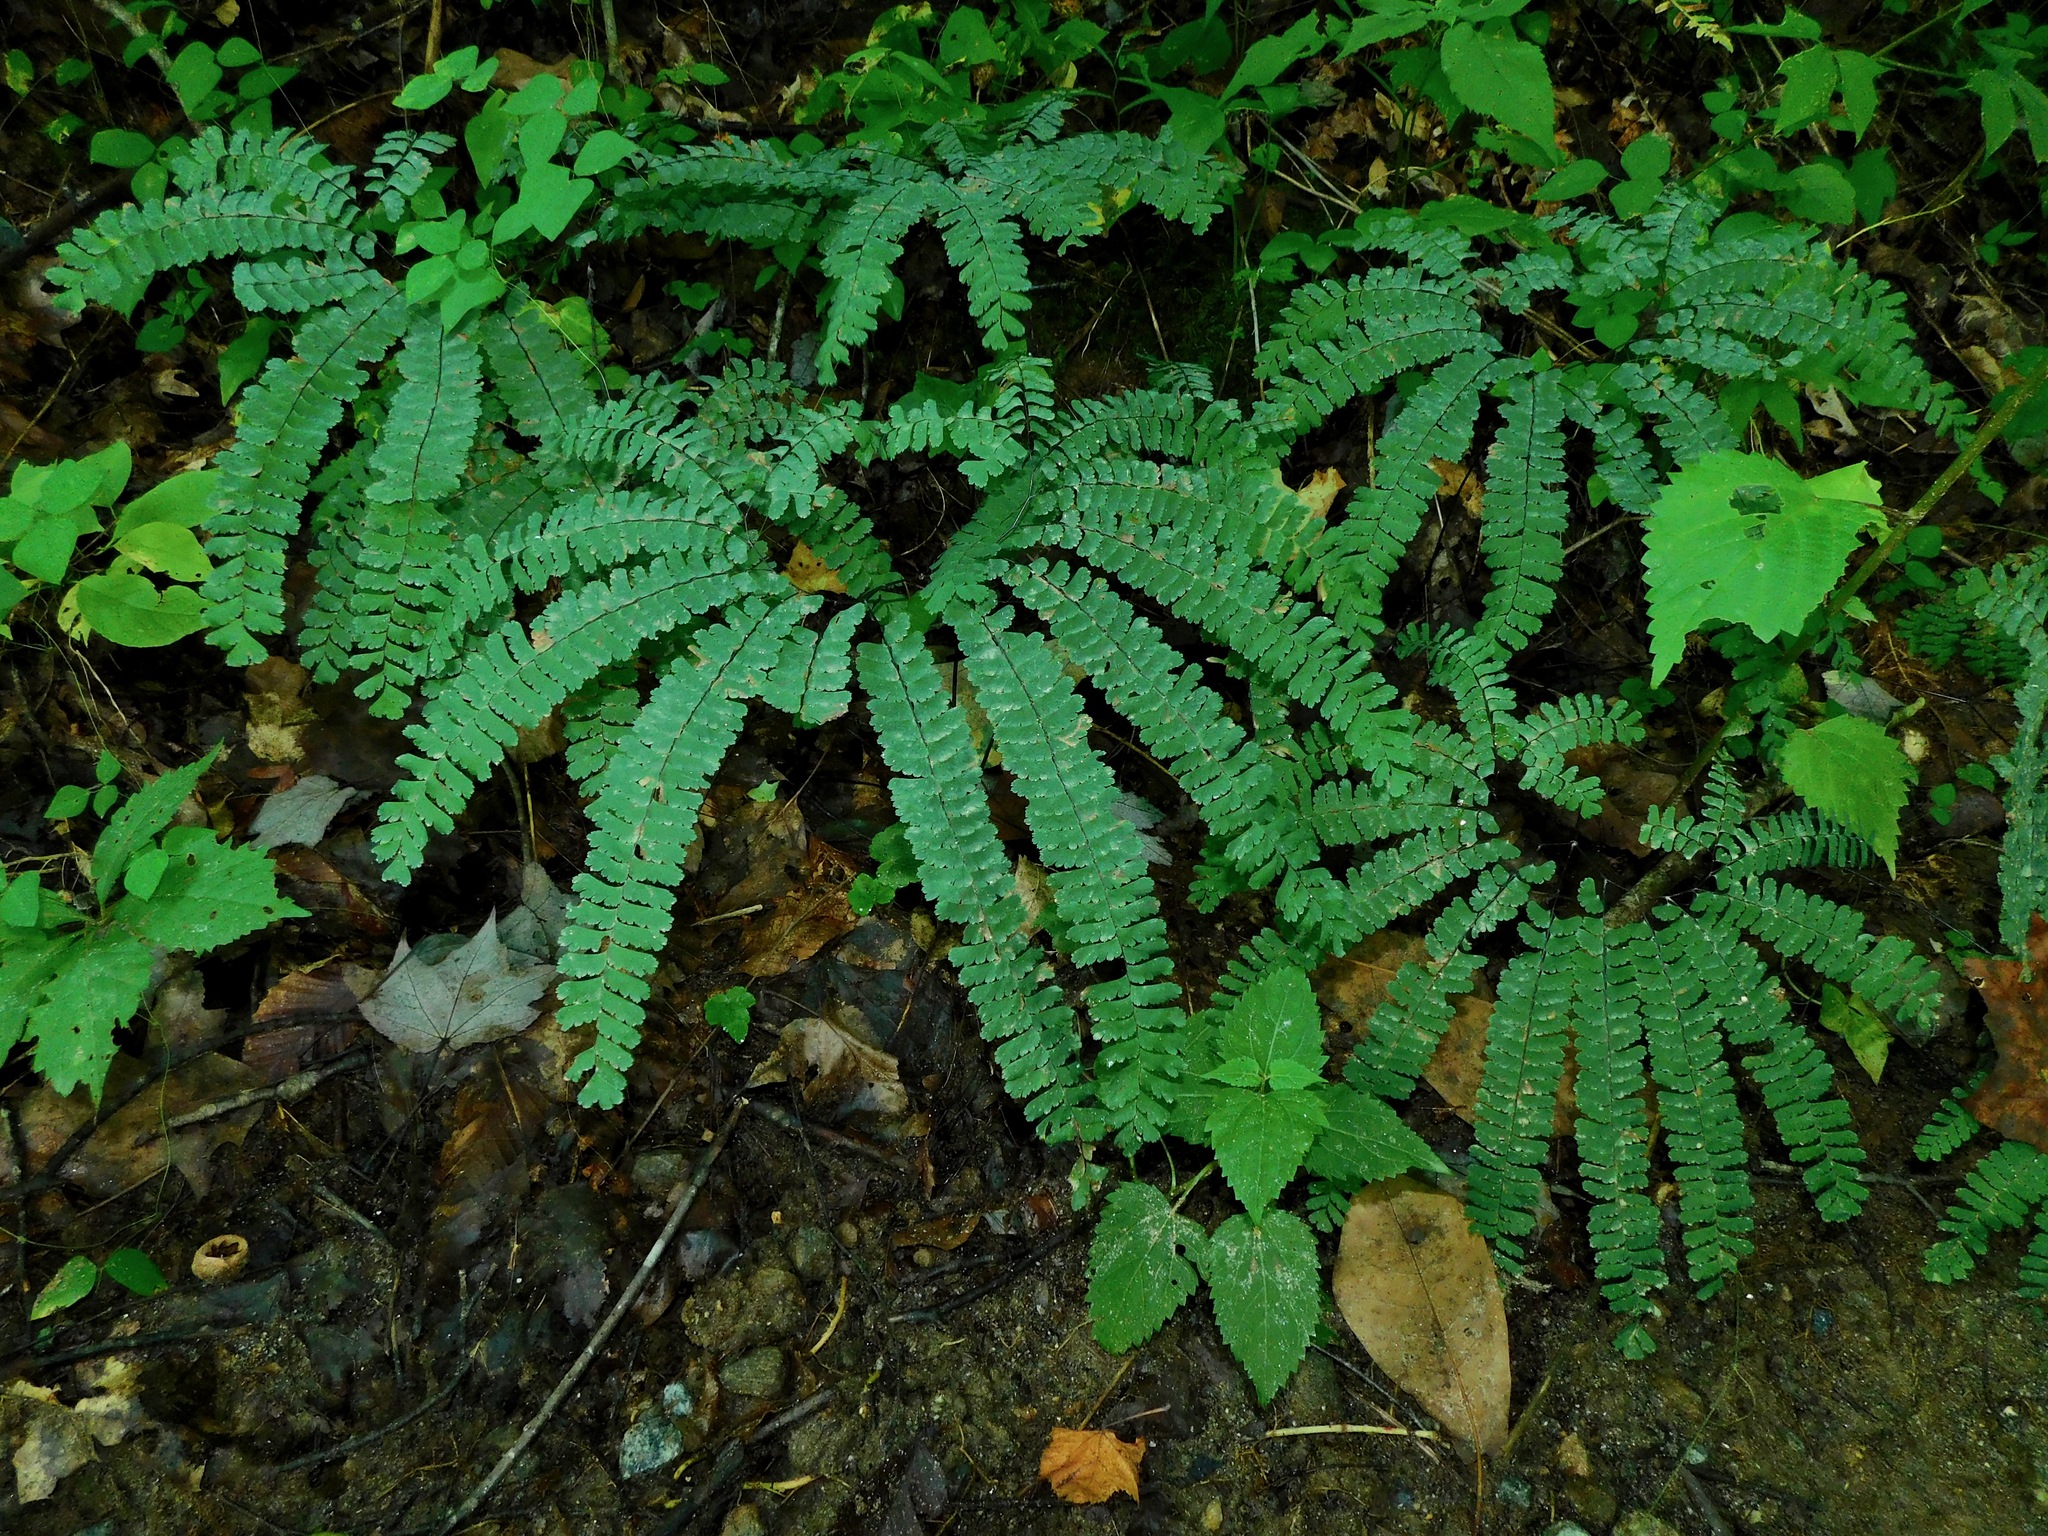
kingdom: Plantae
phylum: Tracheophyta
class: Polypodiopsida
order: Polypodiales
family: Pteridaceae
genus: Adiantum
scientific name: Adiantum pedatum
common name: Five-finger fern
